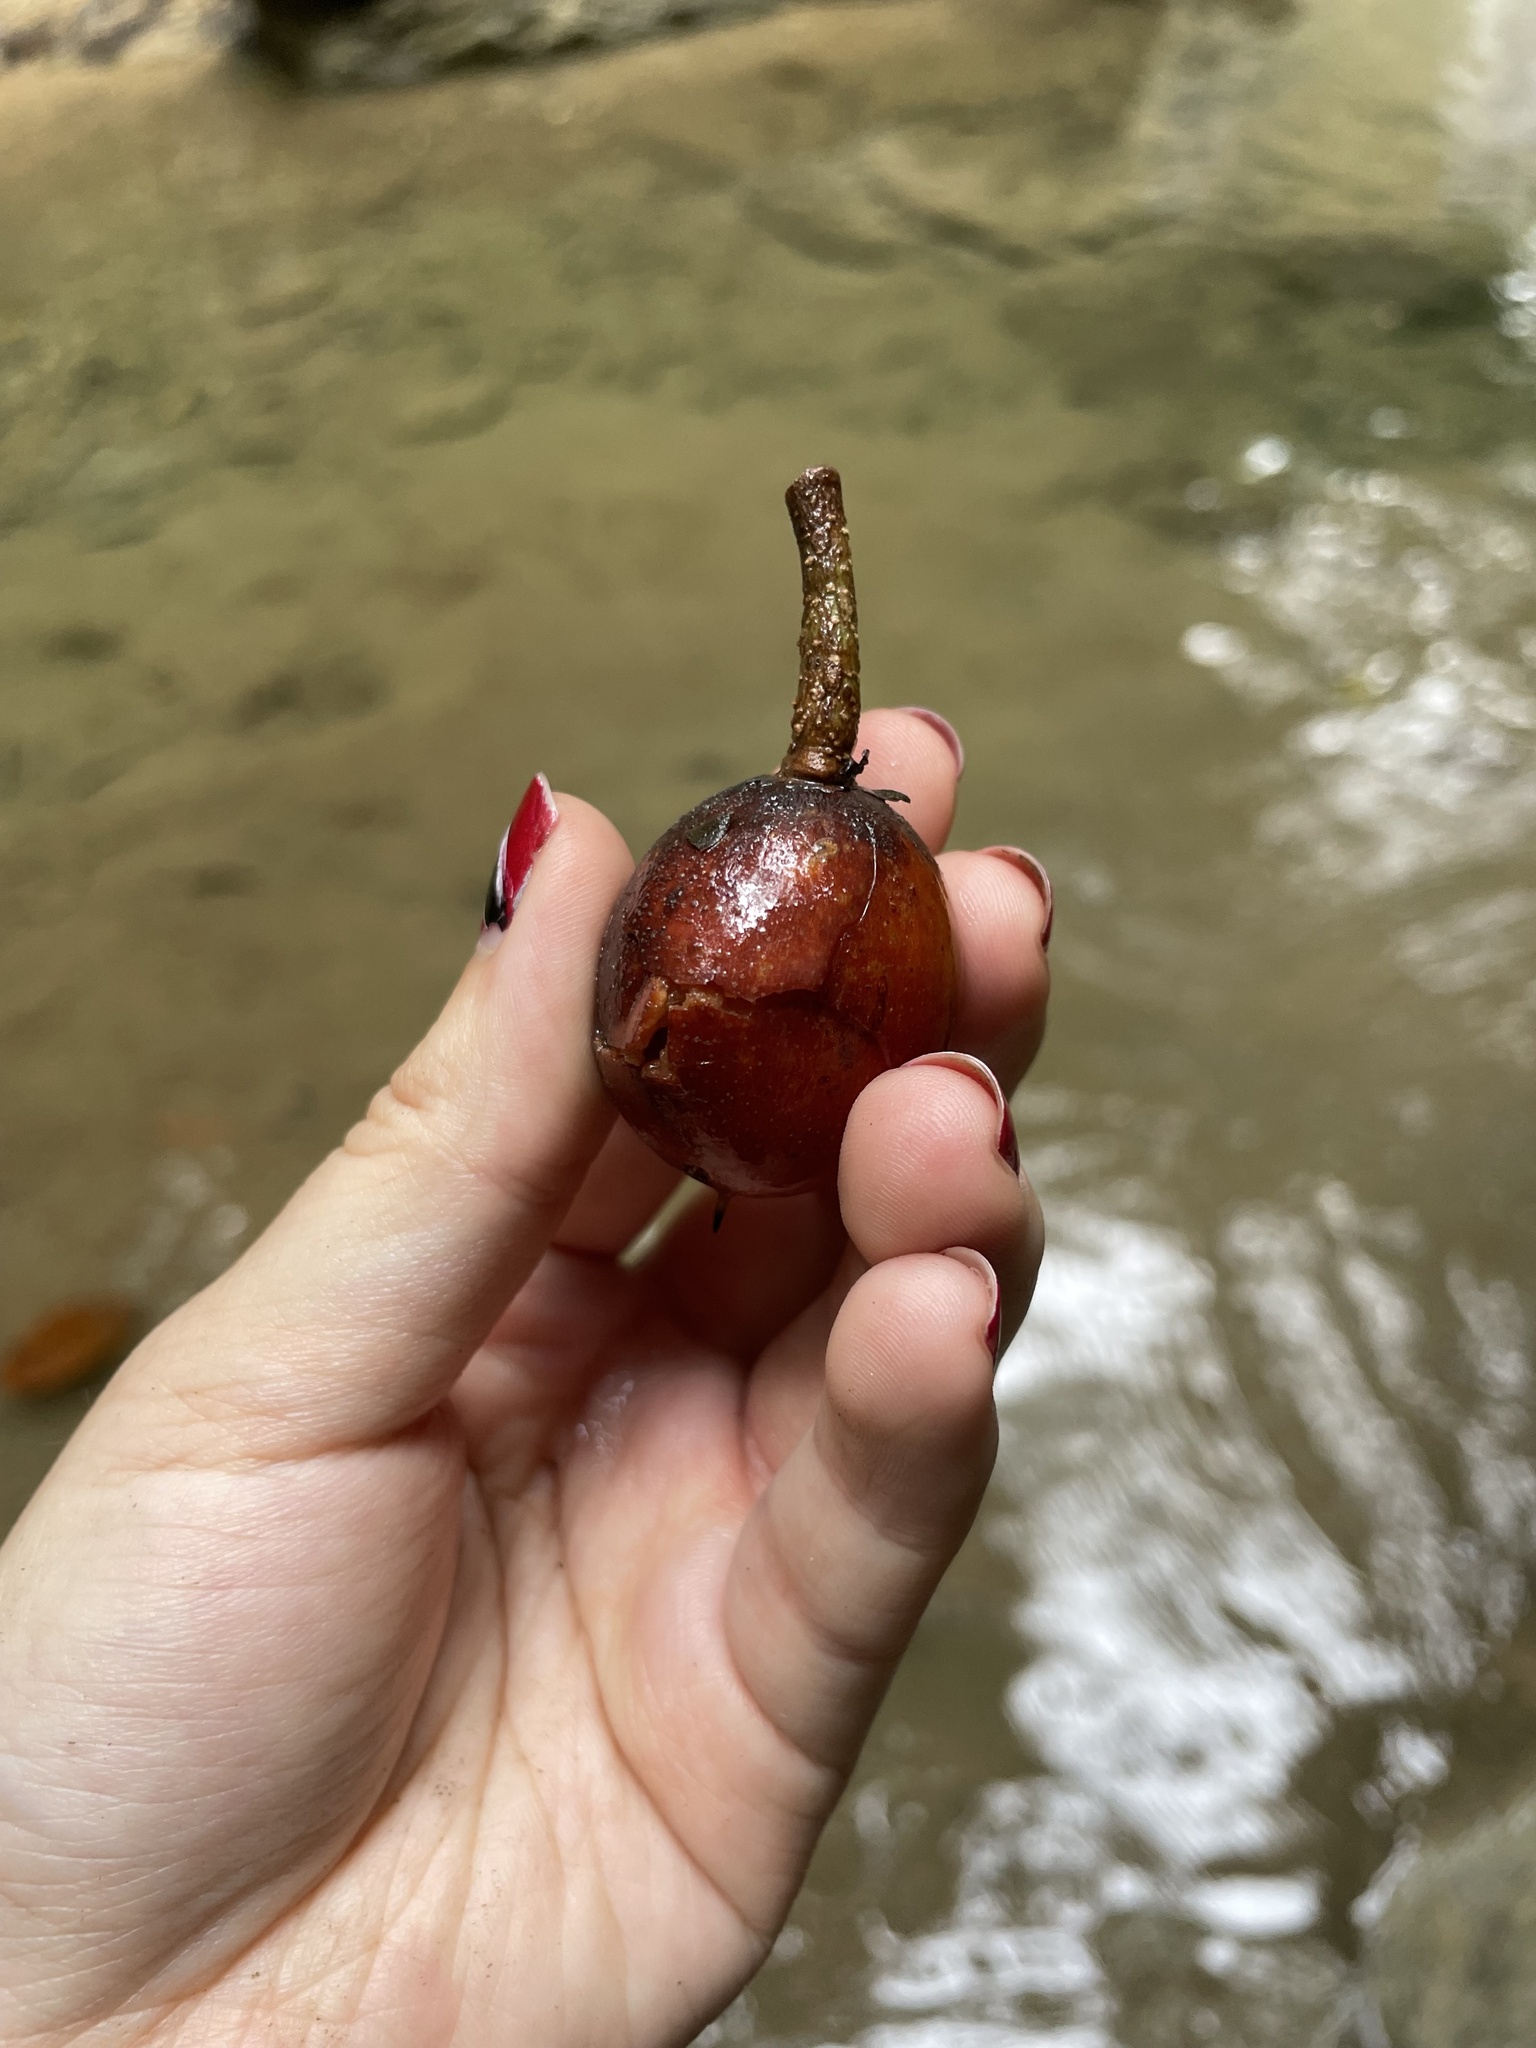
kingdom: Plantae
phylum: Tracheophyta
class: Magnoliopsida
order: Ericales
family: Sapotaceae
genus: Manilkara
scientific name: Manilkara bidentata
